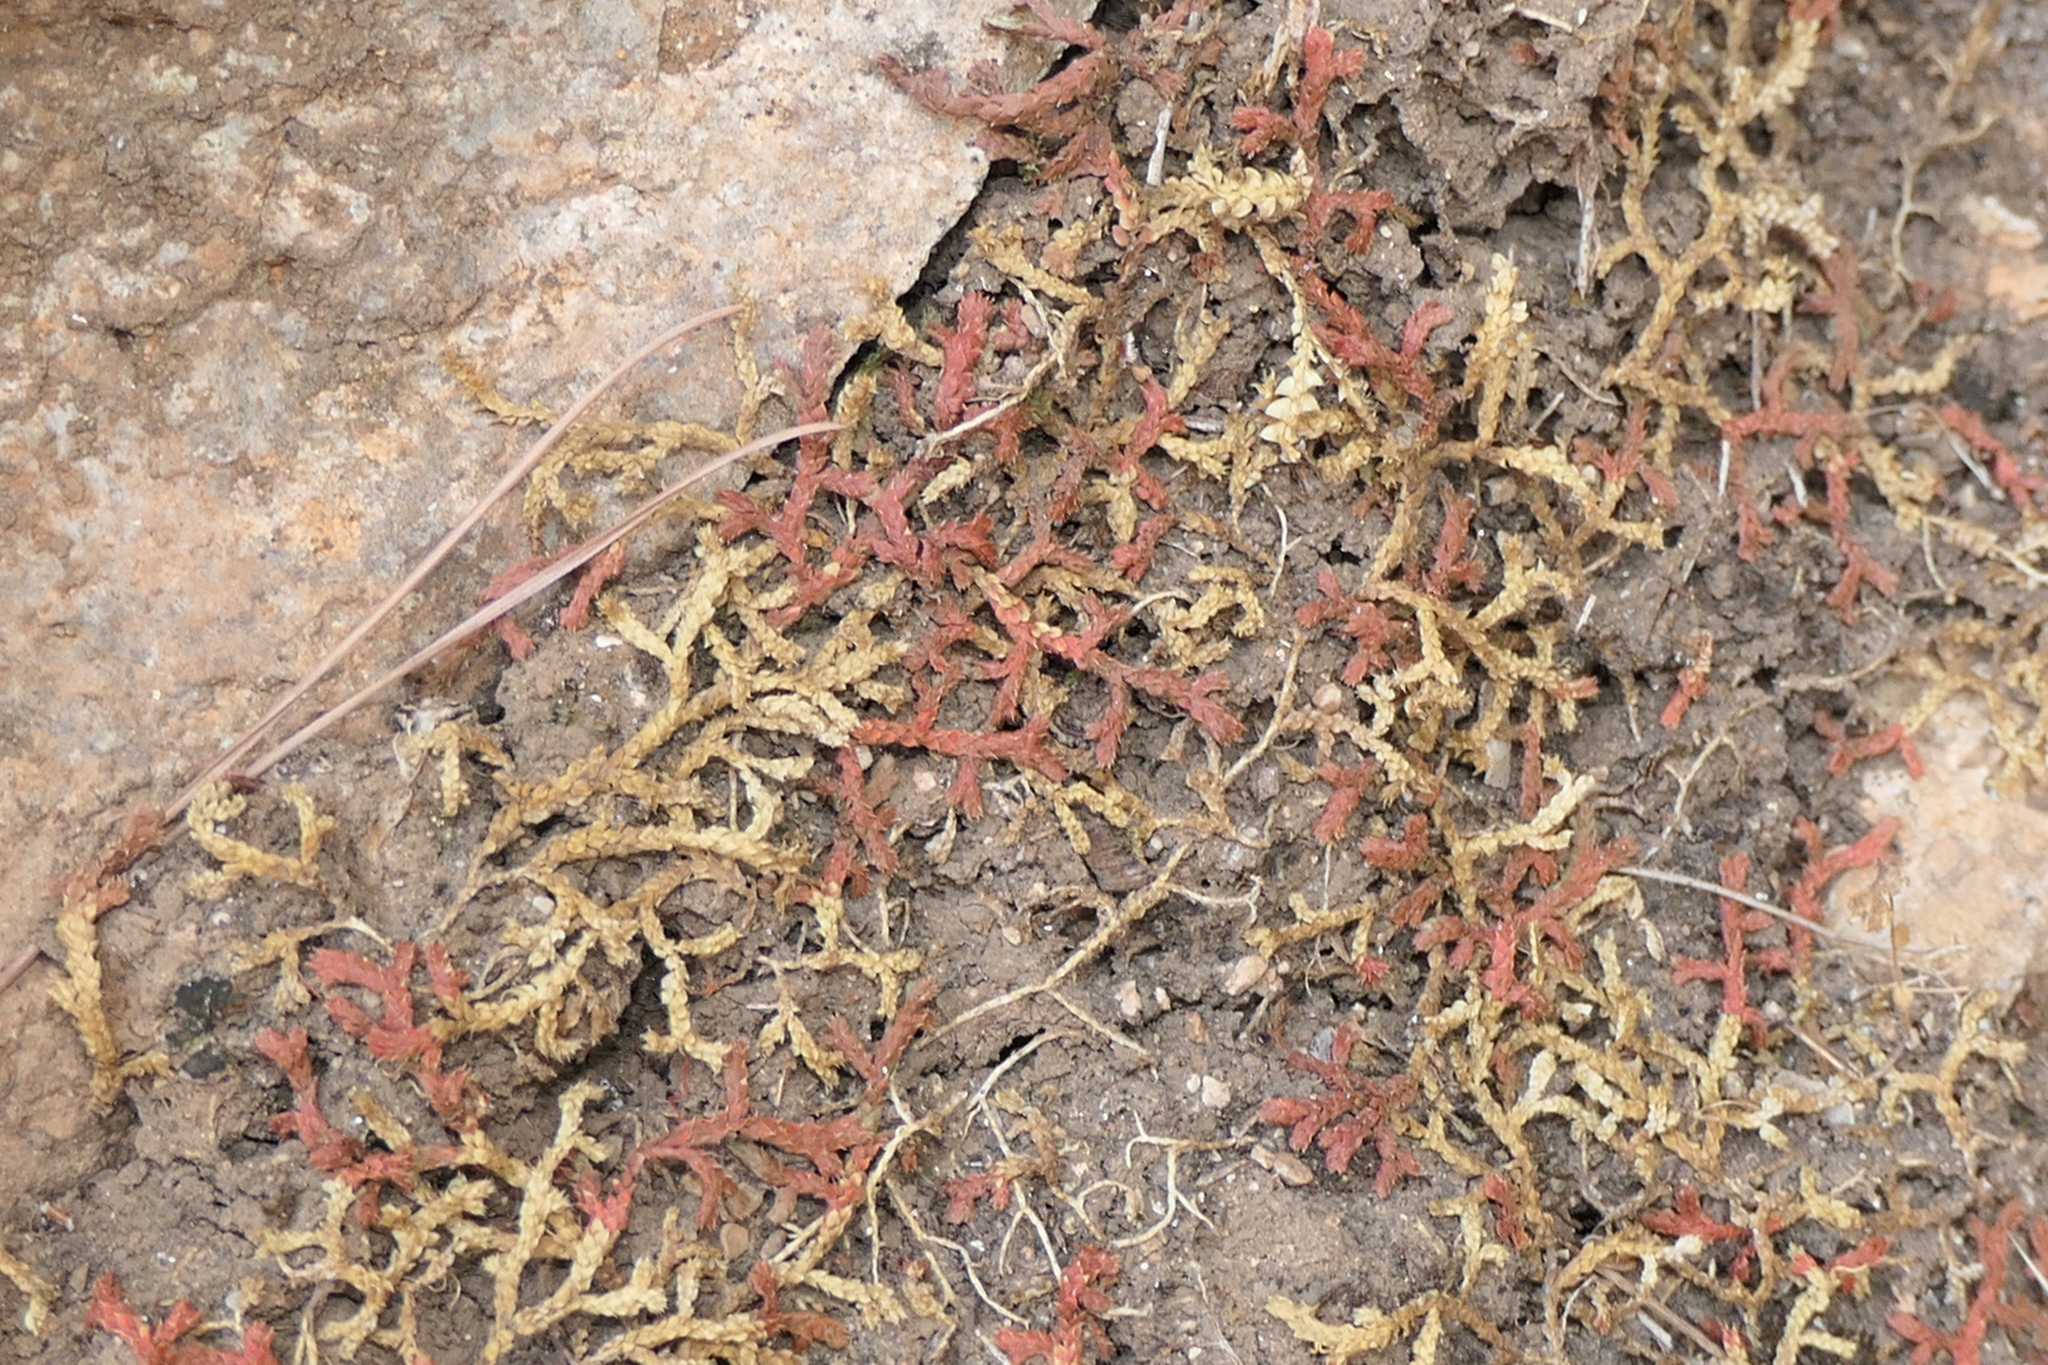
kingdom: Plantae
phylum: Tracheophyta
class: Lycopodiopsida
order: Selaginellales
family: Selaginellaceae
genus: Selaginella
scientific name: Selaginella denticulata
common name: Toothed-leaved clubmoss
